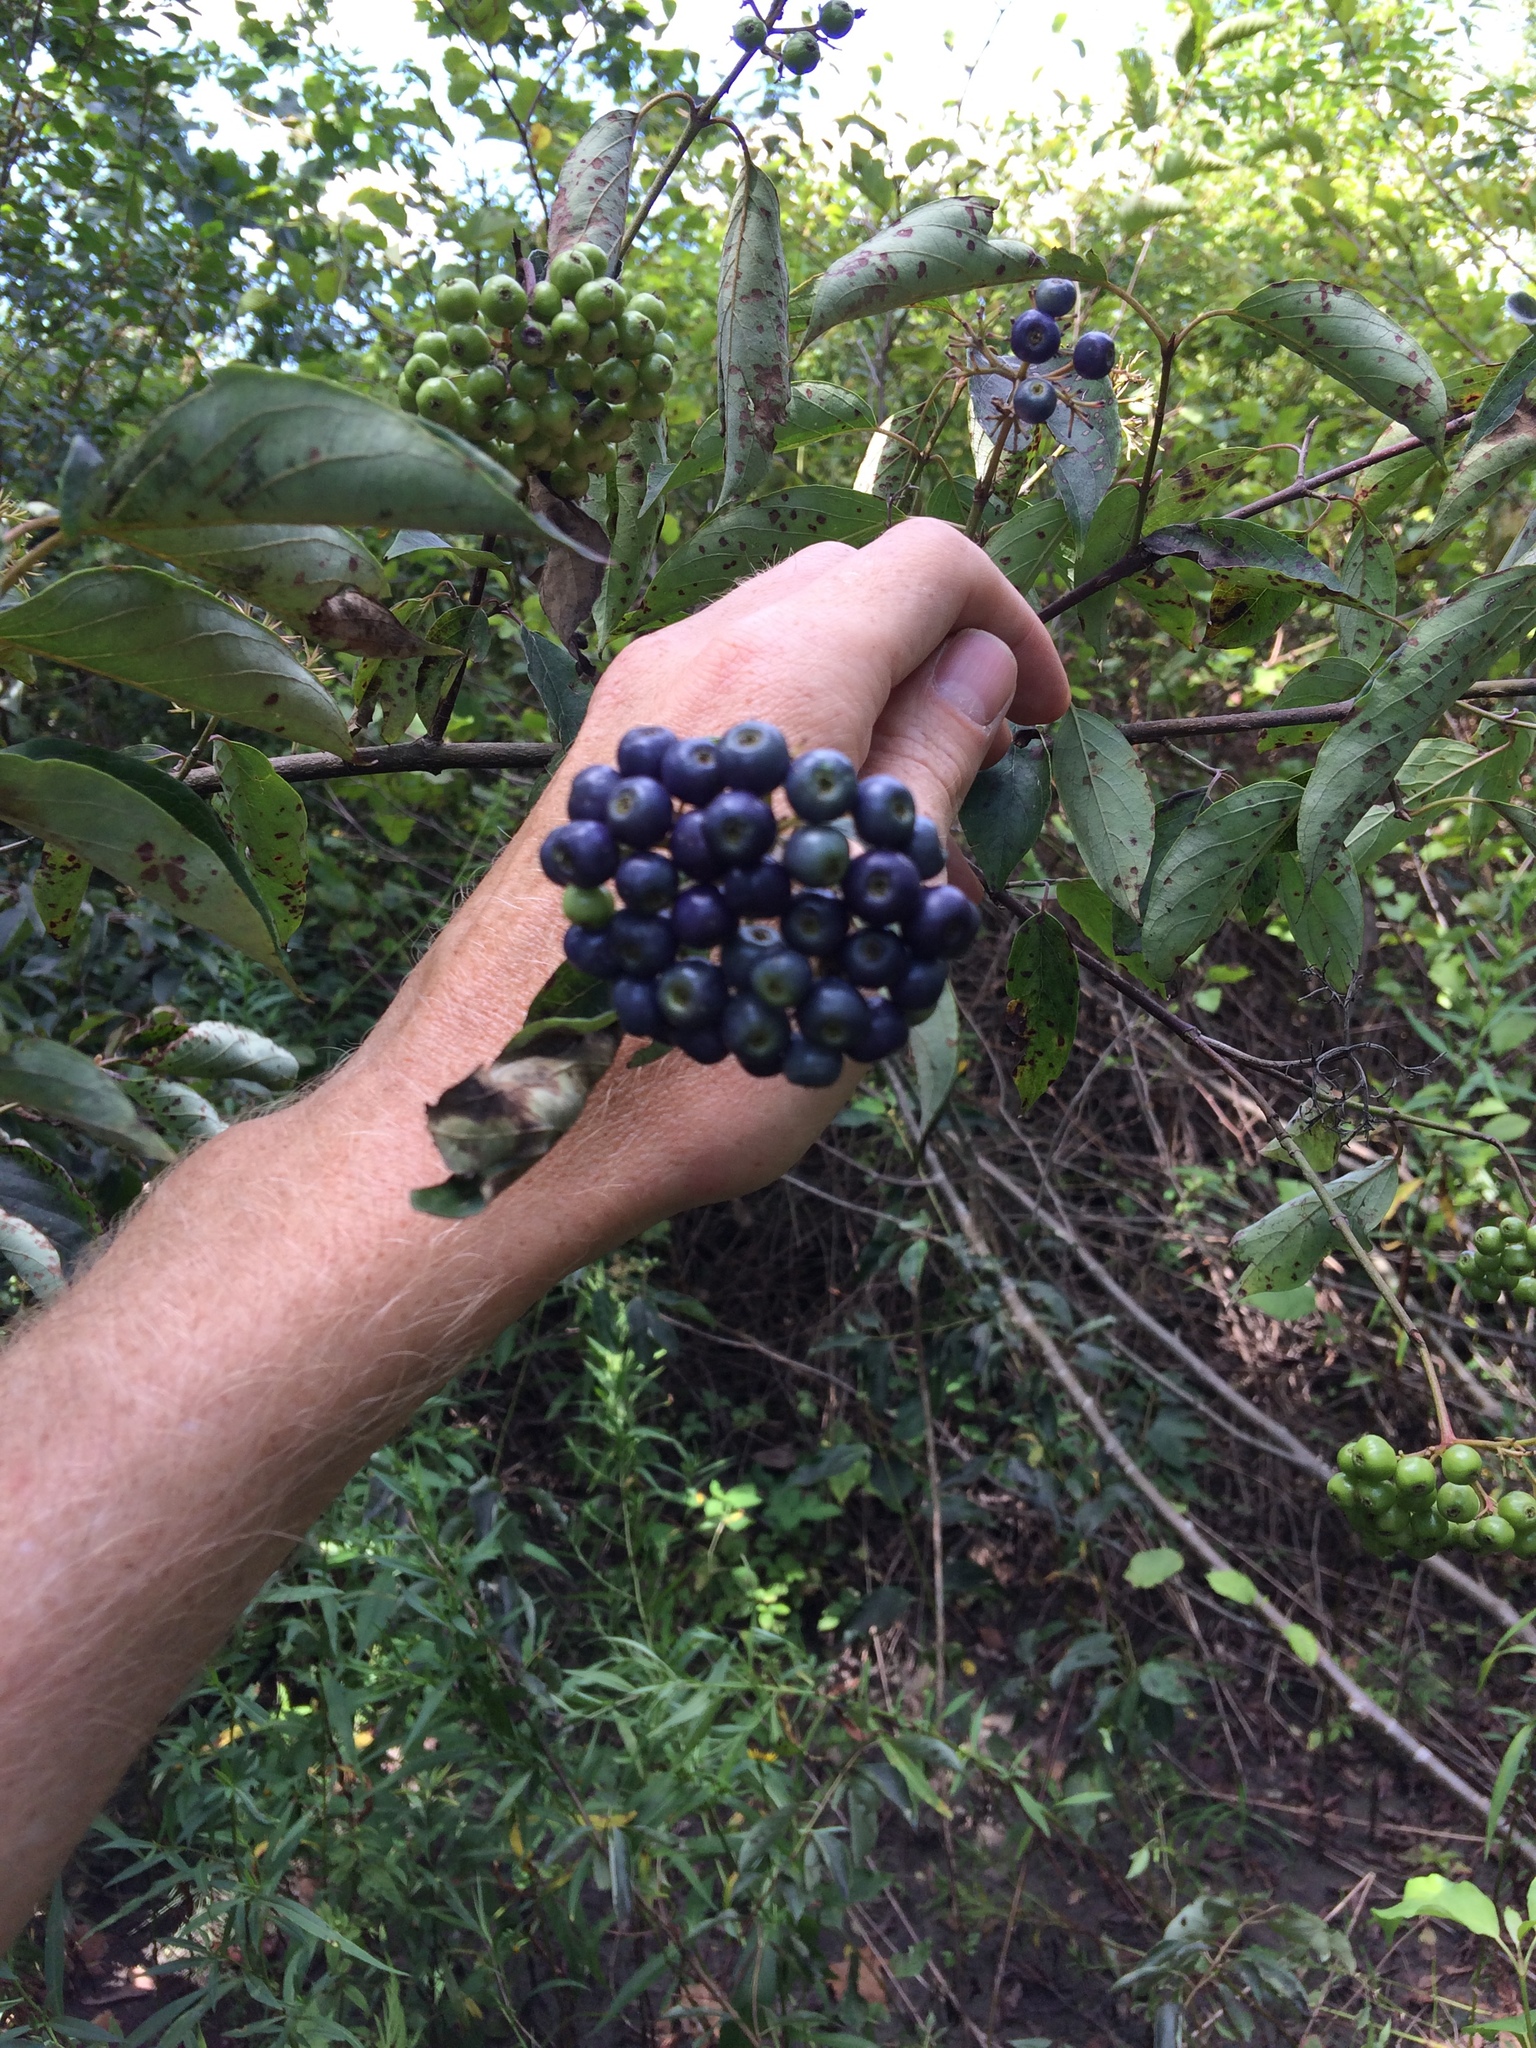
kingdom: Plantae
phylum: Tracheophyta
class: Magnoliopsida
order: Cornales
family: Cornaceae
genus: Cornus
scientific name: Cornus amomum
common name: Silky dogwood
